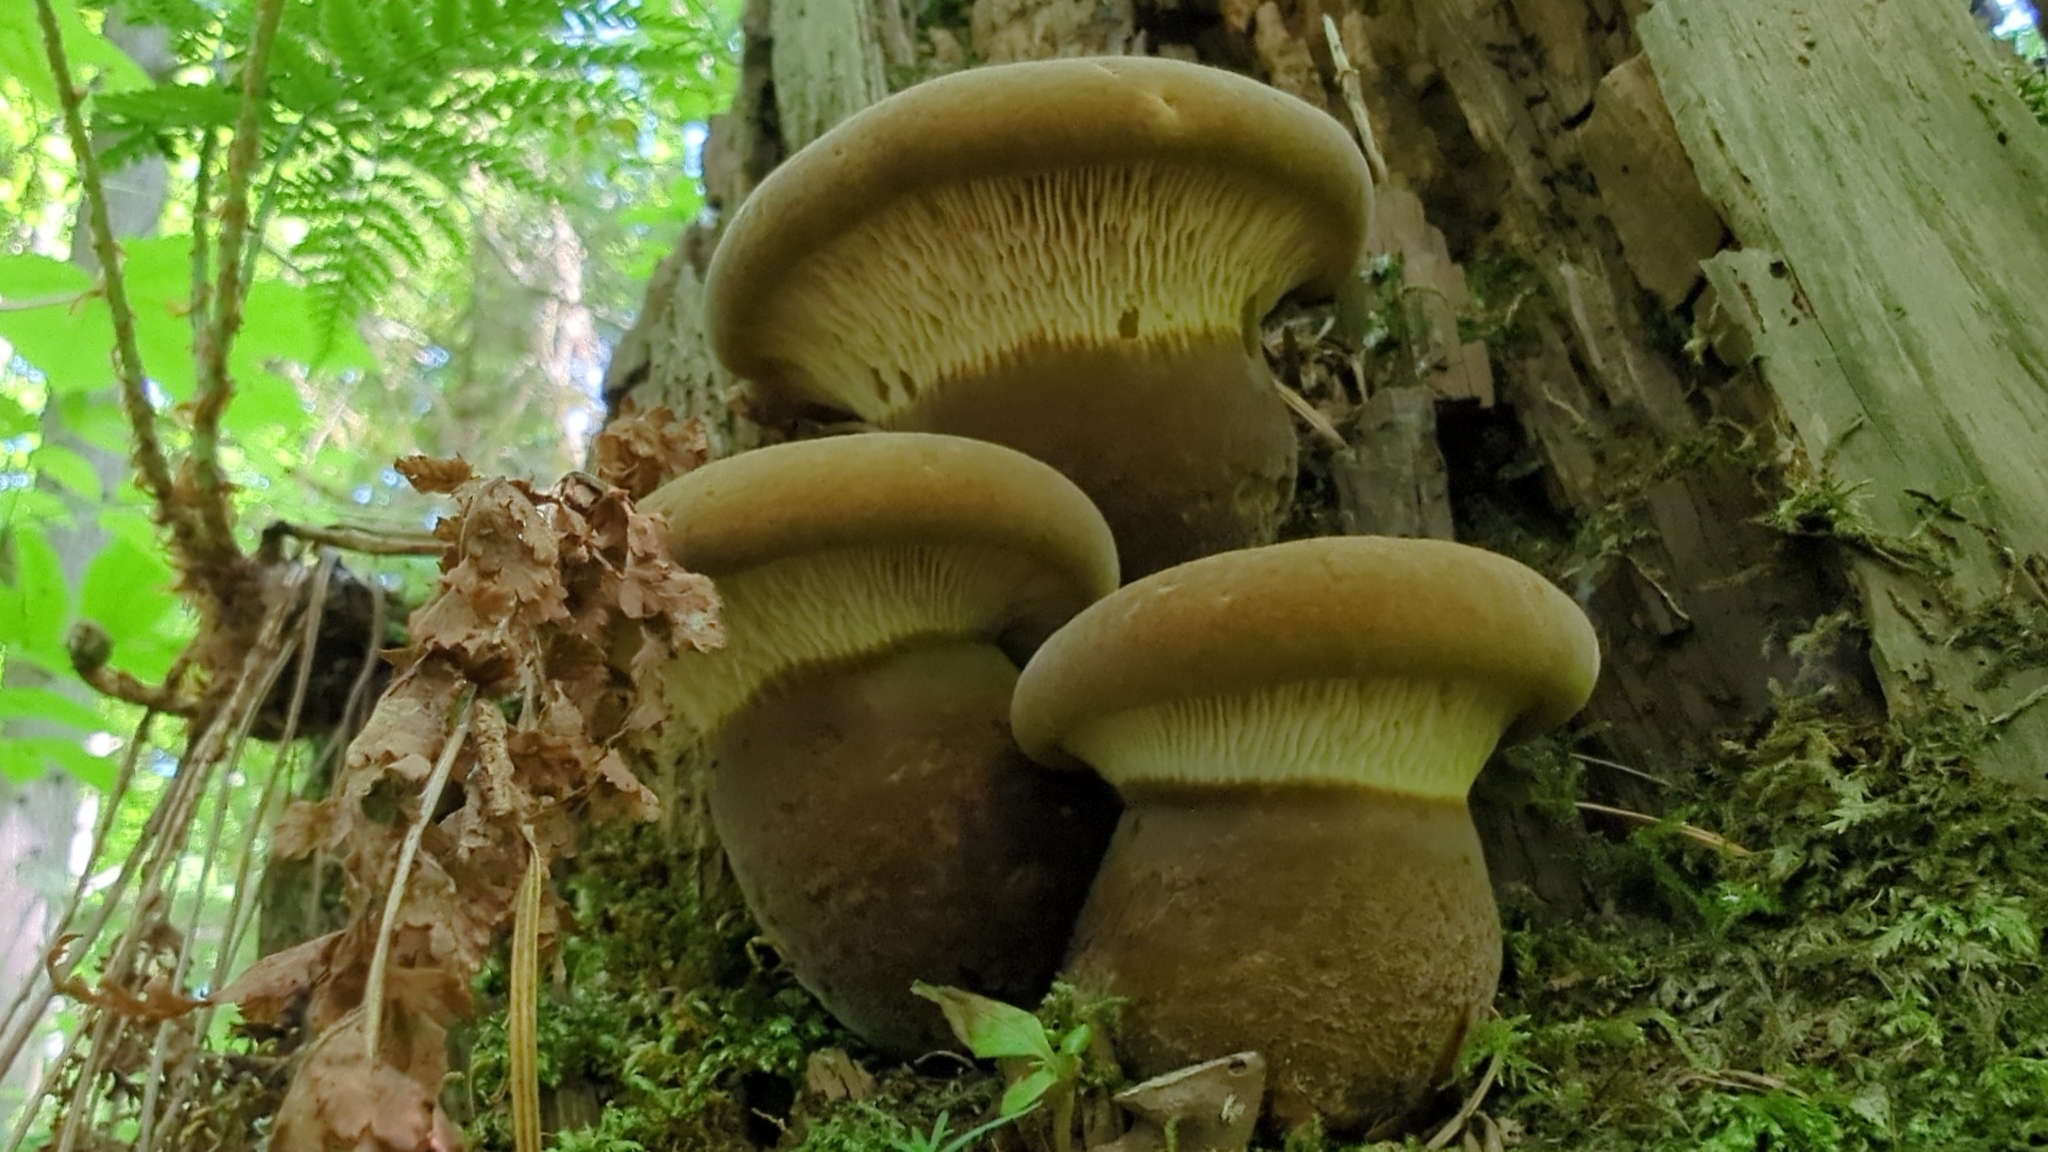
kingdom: Fungi
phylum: Basidiomycota
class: Agaricomycetes
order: Boletales
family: Tapinellaceae
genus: Tapinella
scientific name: Tapinella atrotomentosa
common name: Velvet rollrim
